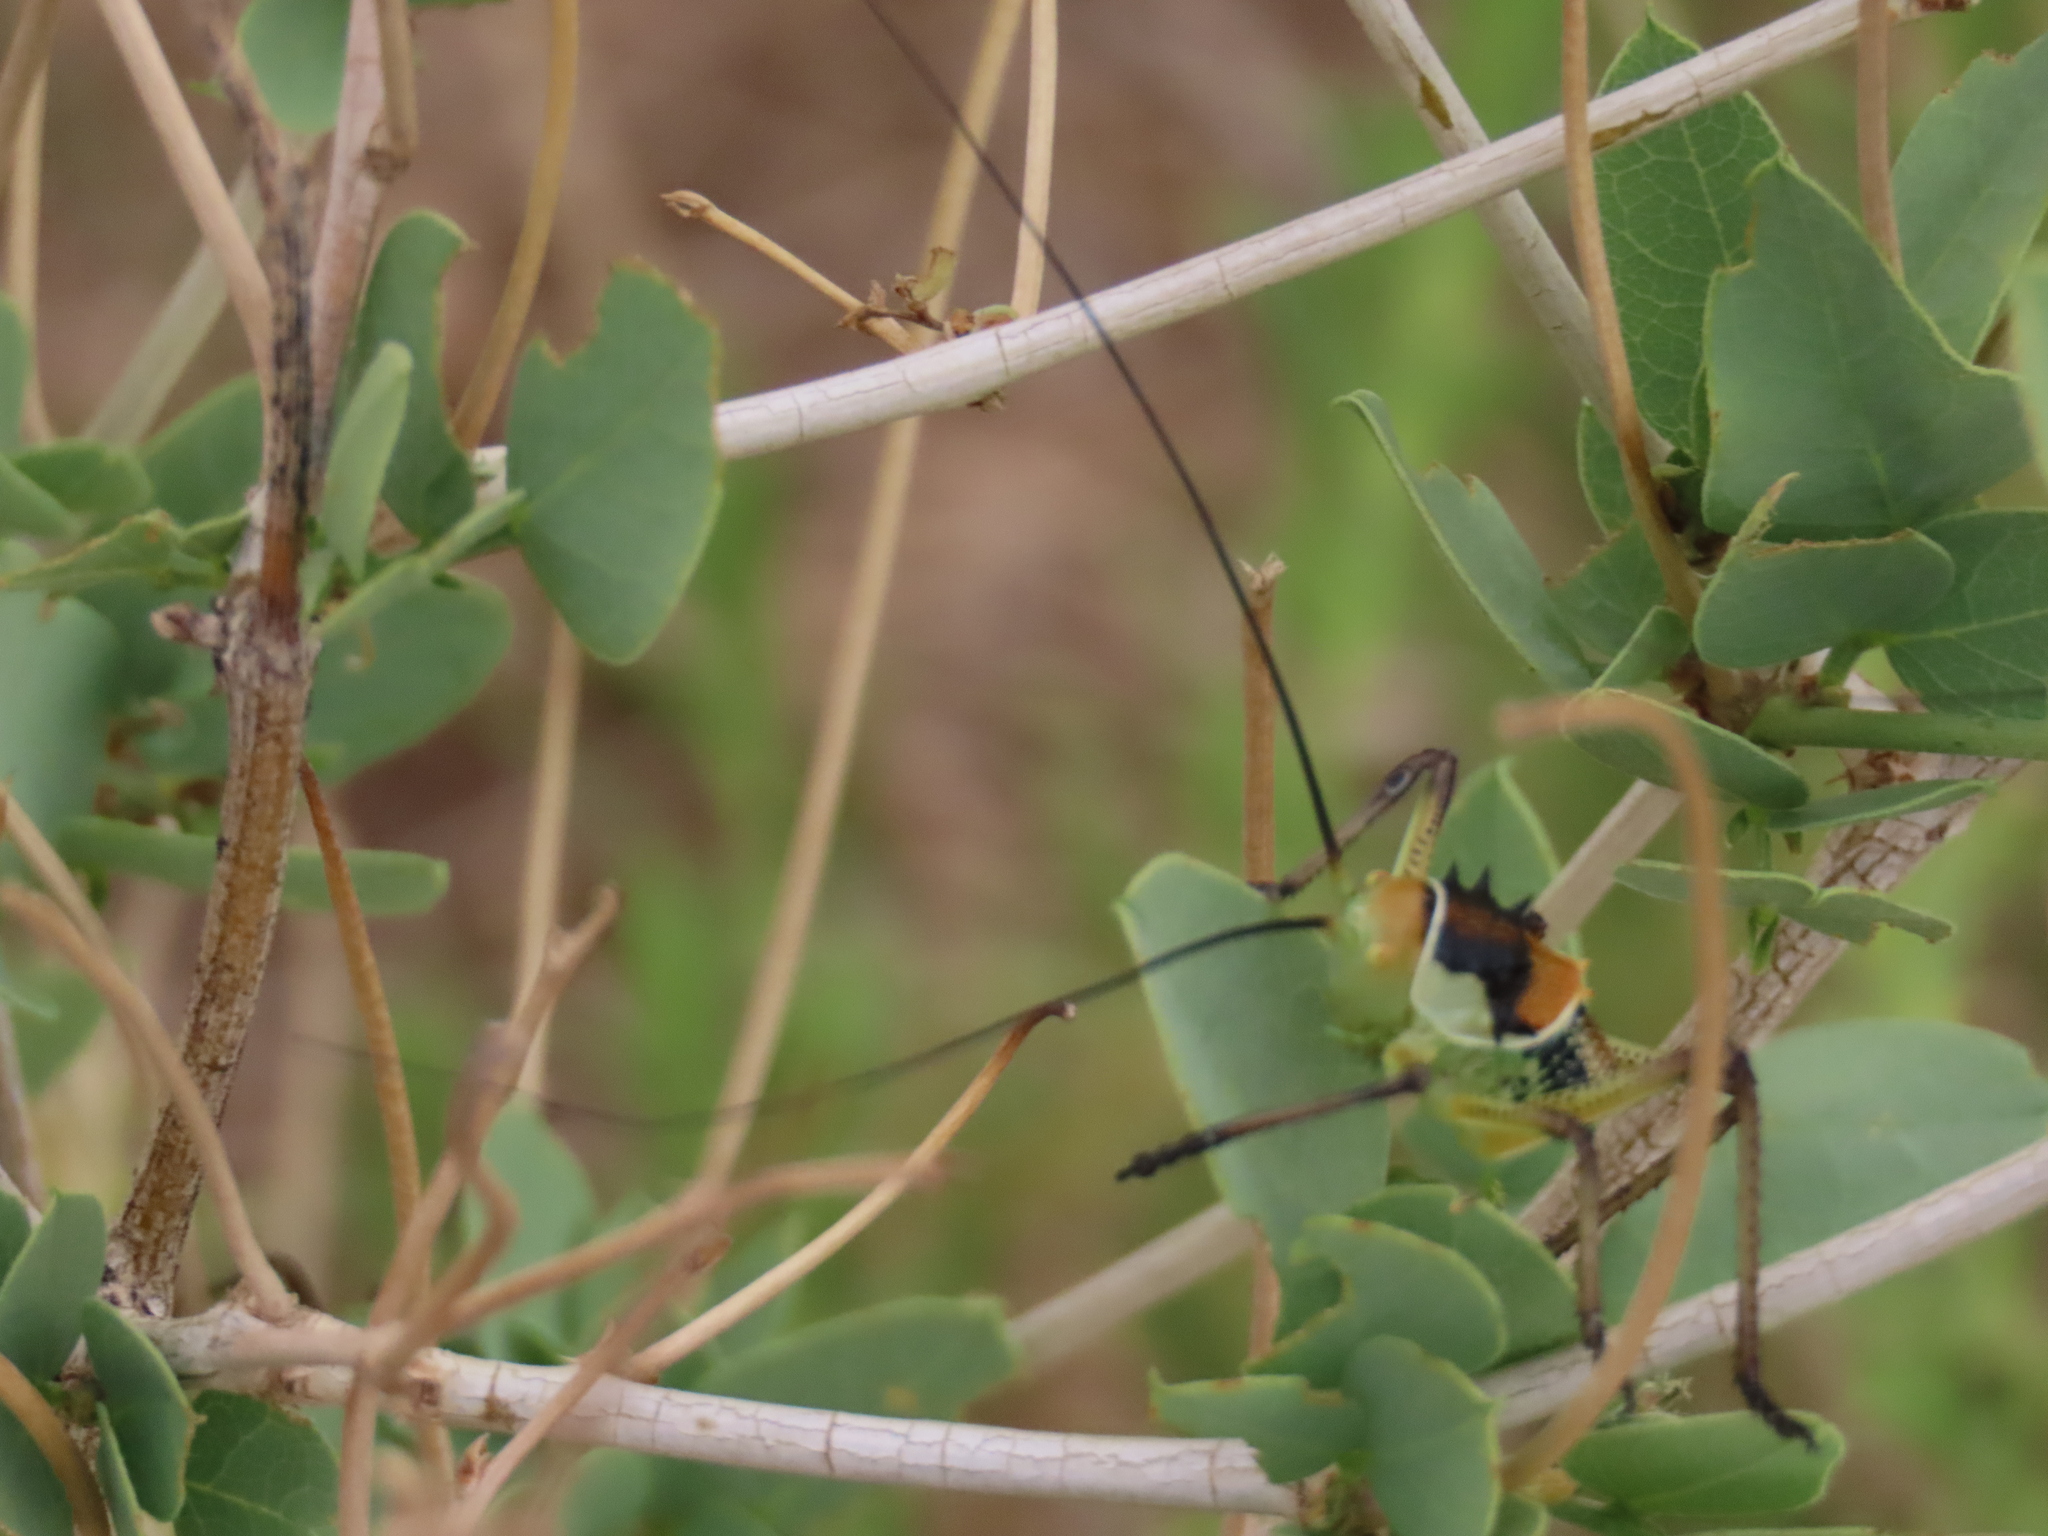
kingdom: Animalia
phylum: Arthropoda
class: Insecta
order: Orthoptera
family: Tettigoniidae
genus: Acanthoplus
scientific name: Acanthoplus discoidalis
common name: Armoured katydid
